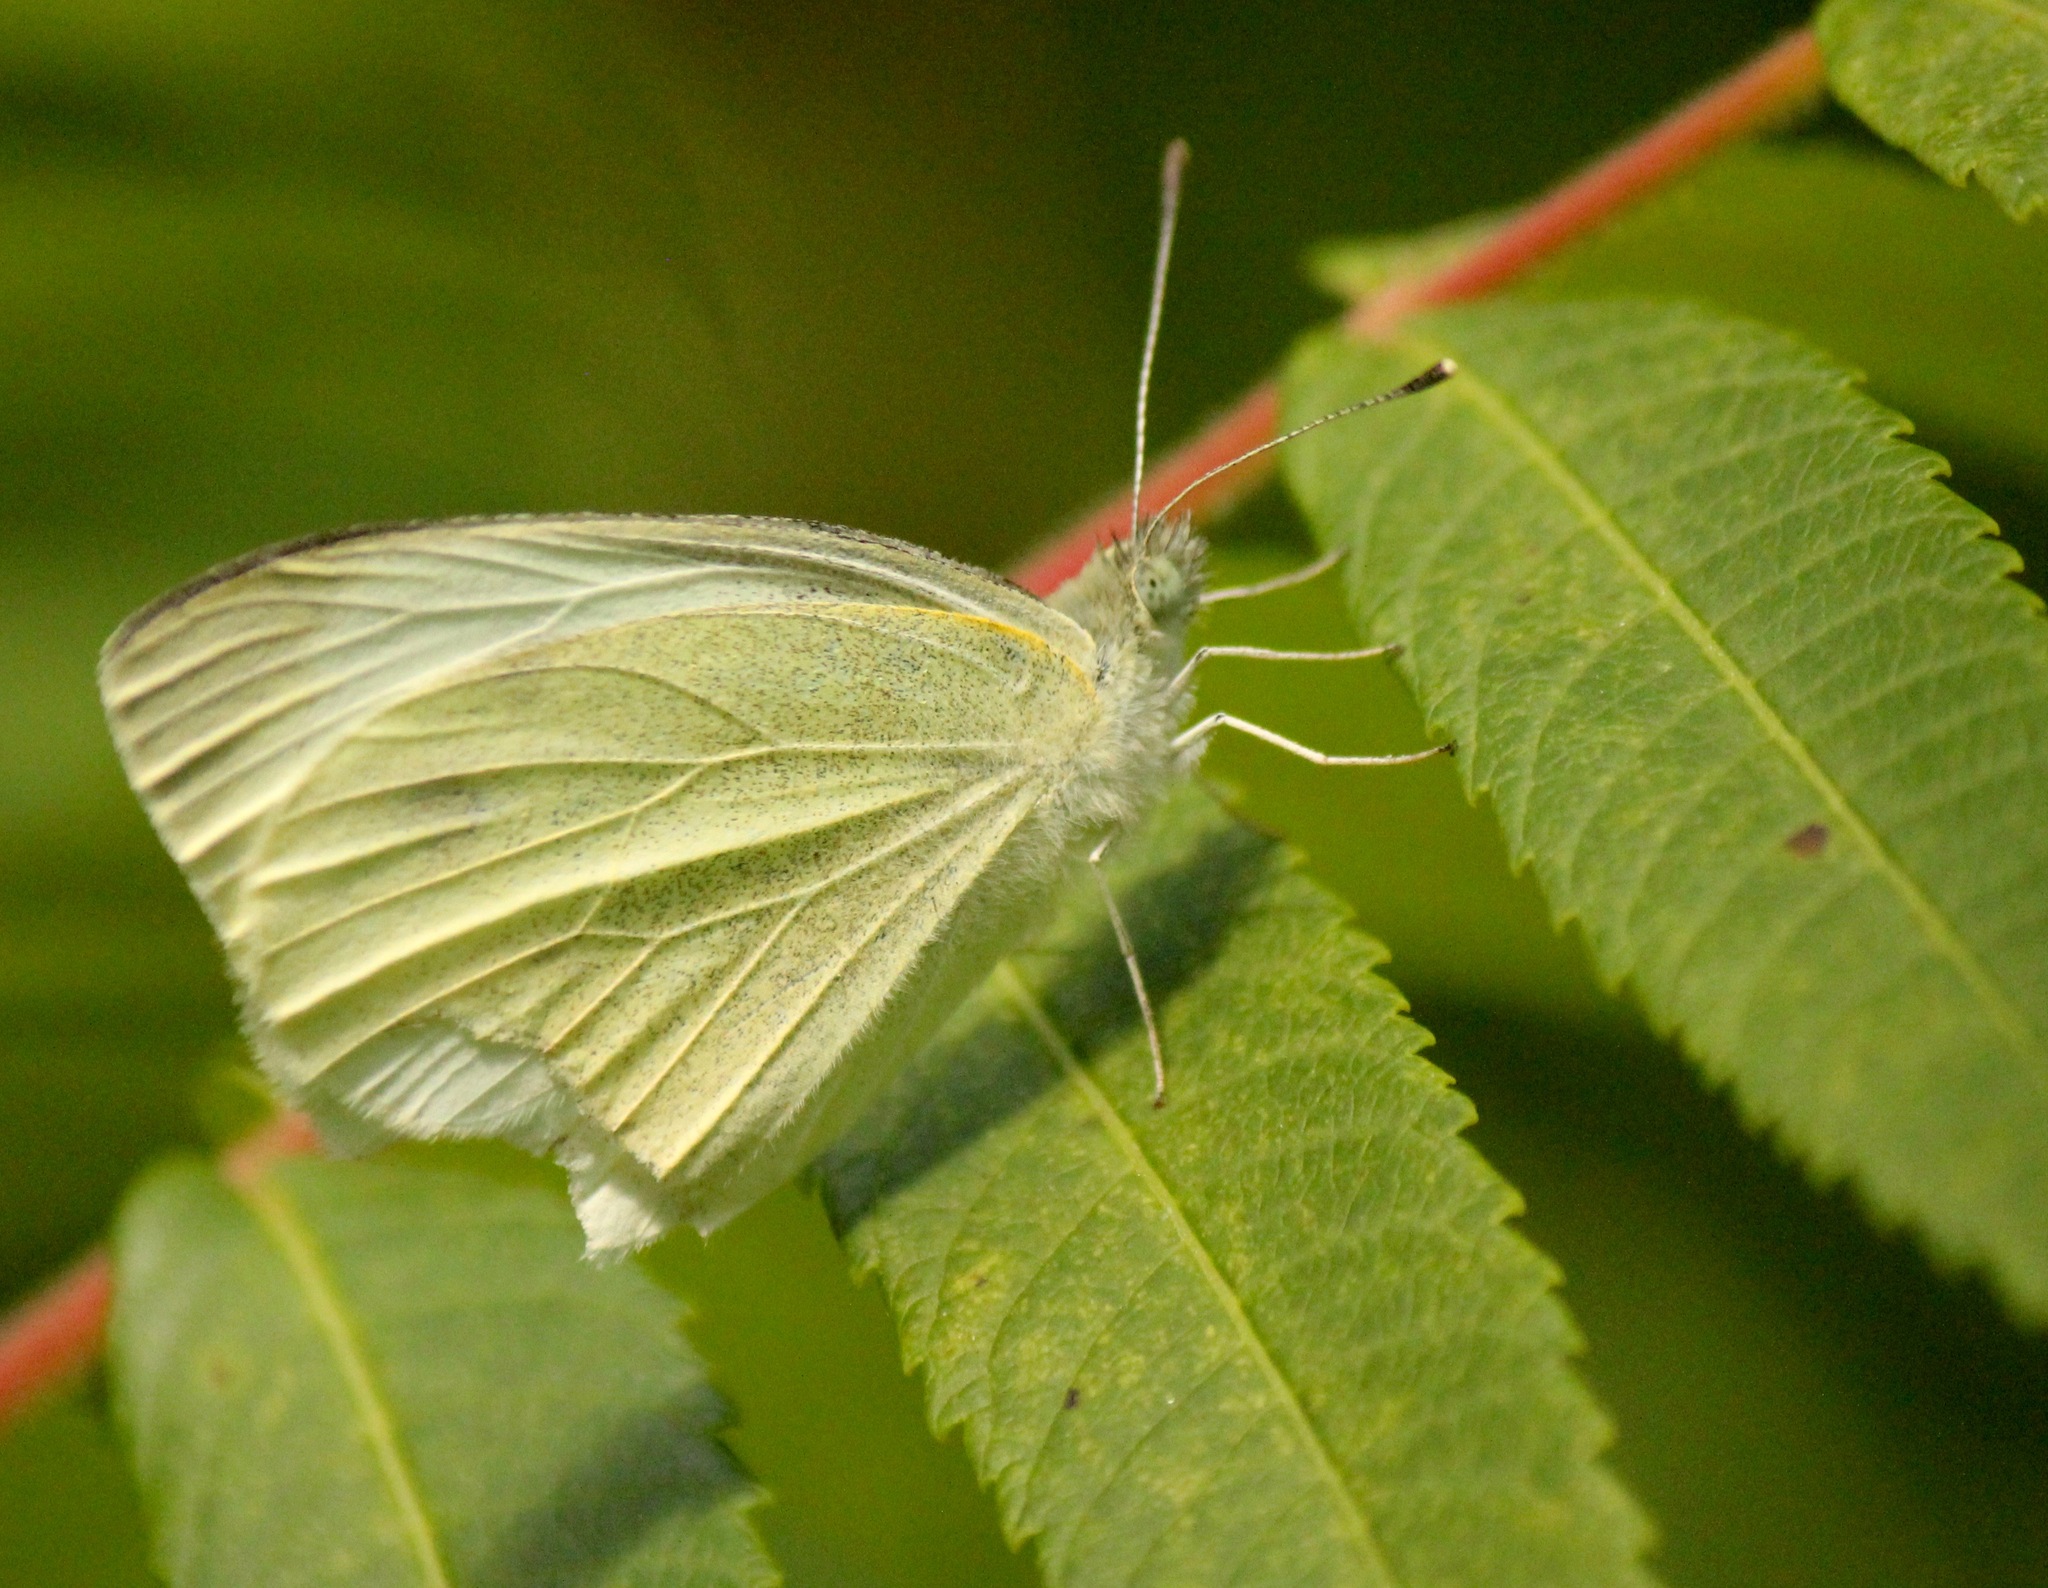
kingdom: Animalia
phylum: Arthropoda
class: Insecta
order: Lepidoptera
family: Pieridae
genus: Pieris
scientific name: Pieris rapae
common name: Small white
